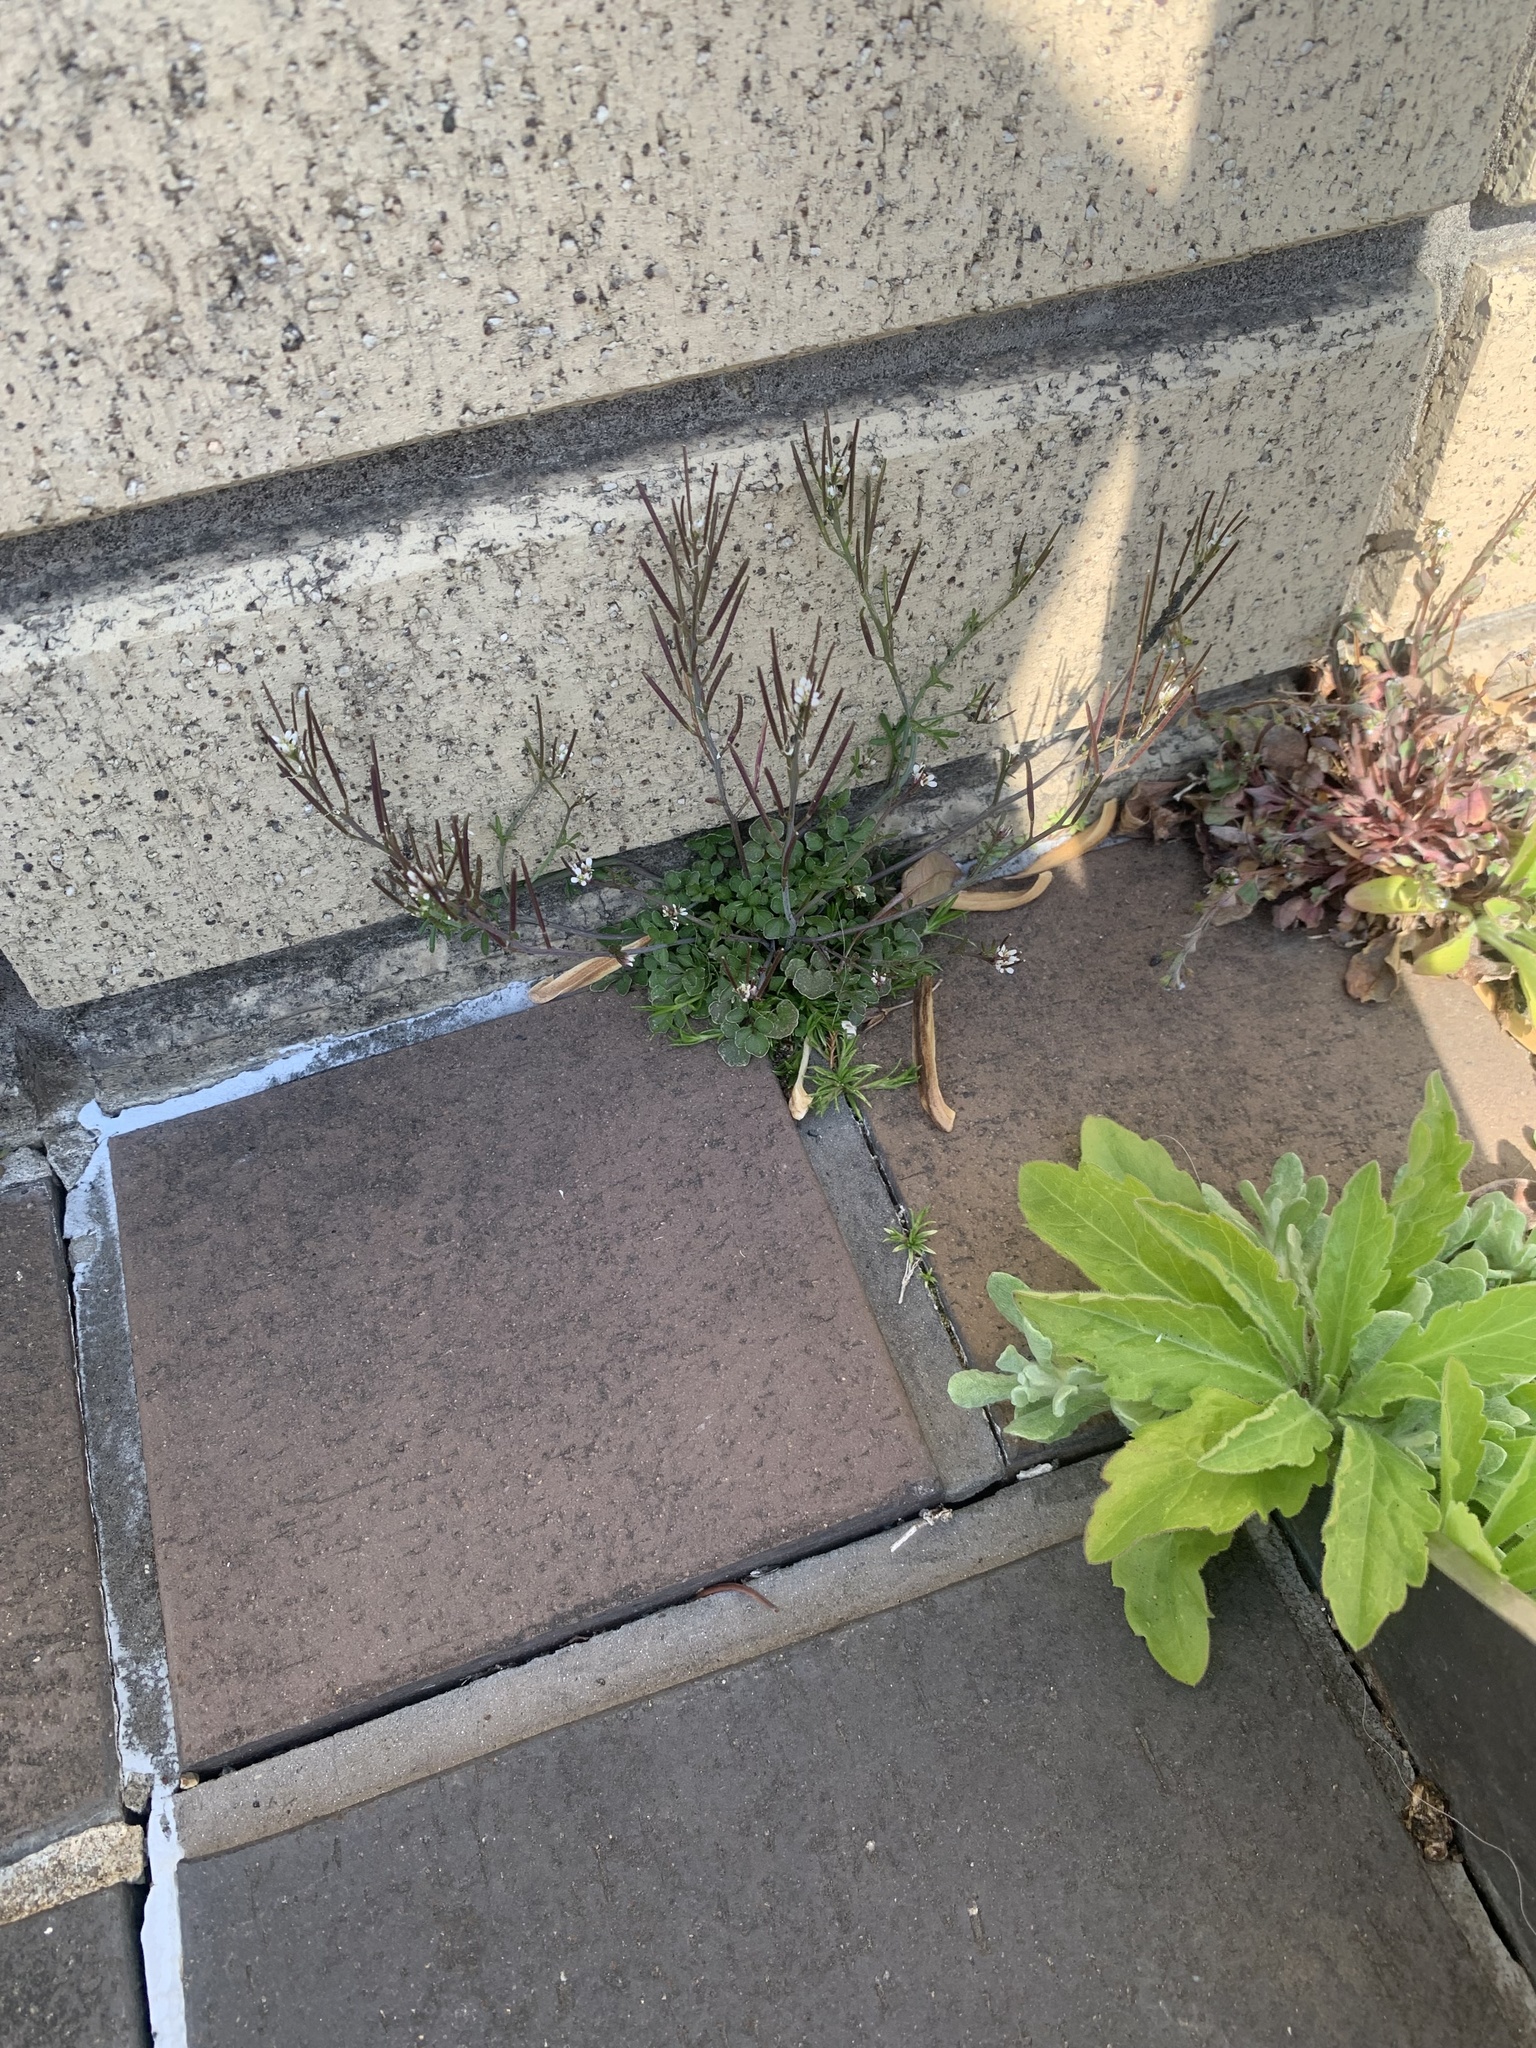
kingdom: Plantae
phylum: Tracheophyta
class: Magnoliopsida
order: Brassicales
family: Brassicaceae
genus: Cardamine
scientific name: Cardamine hirsuta
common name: Hairy bittercress
